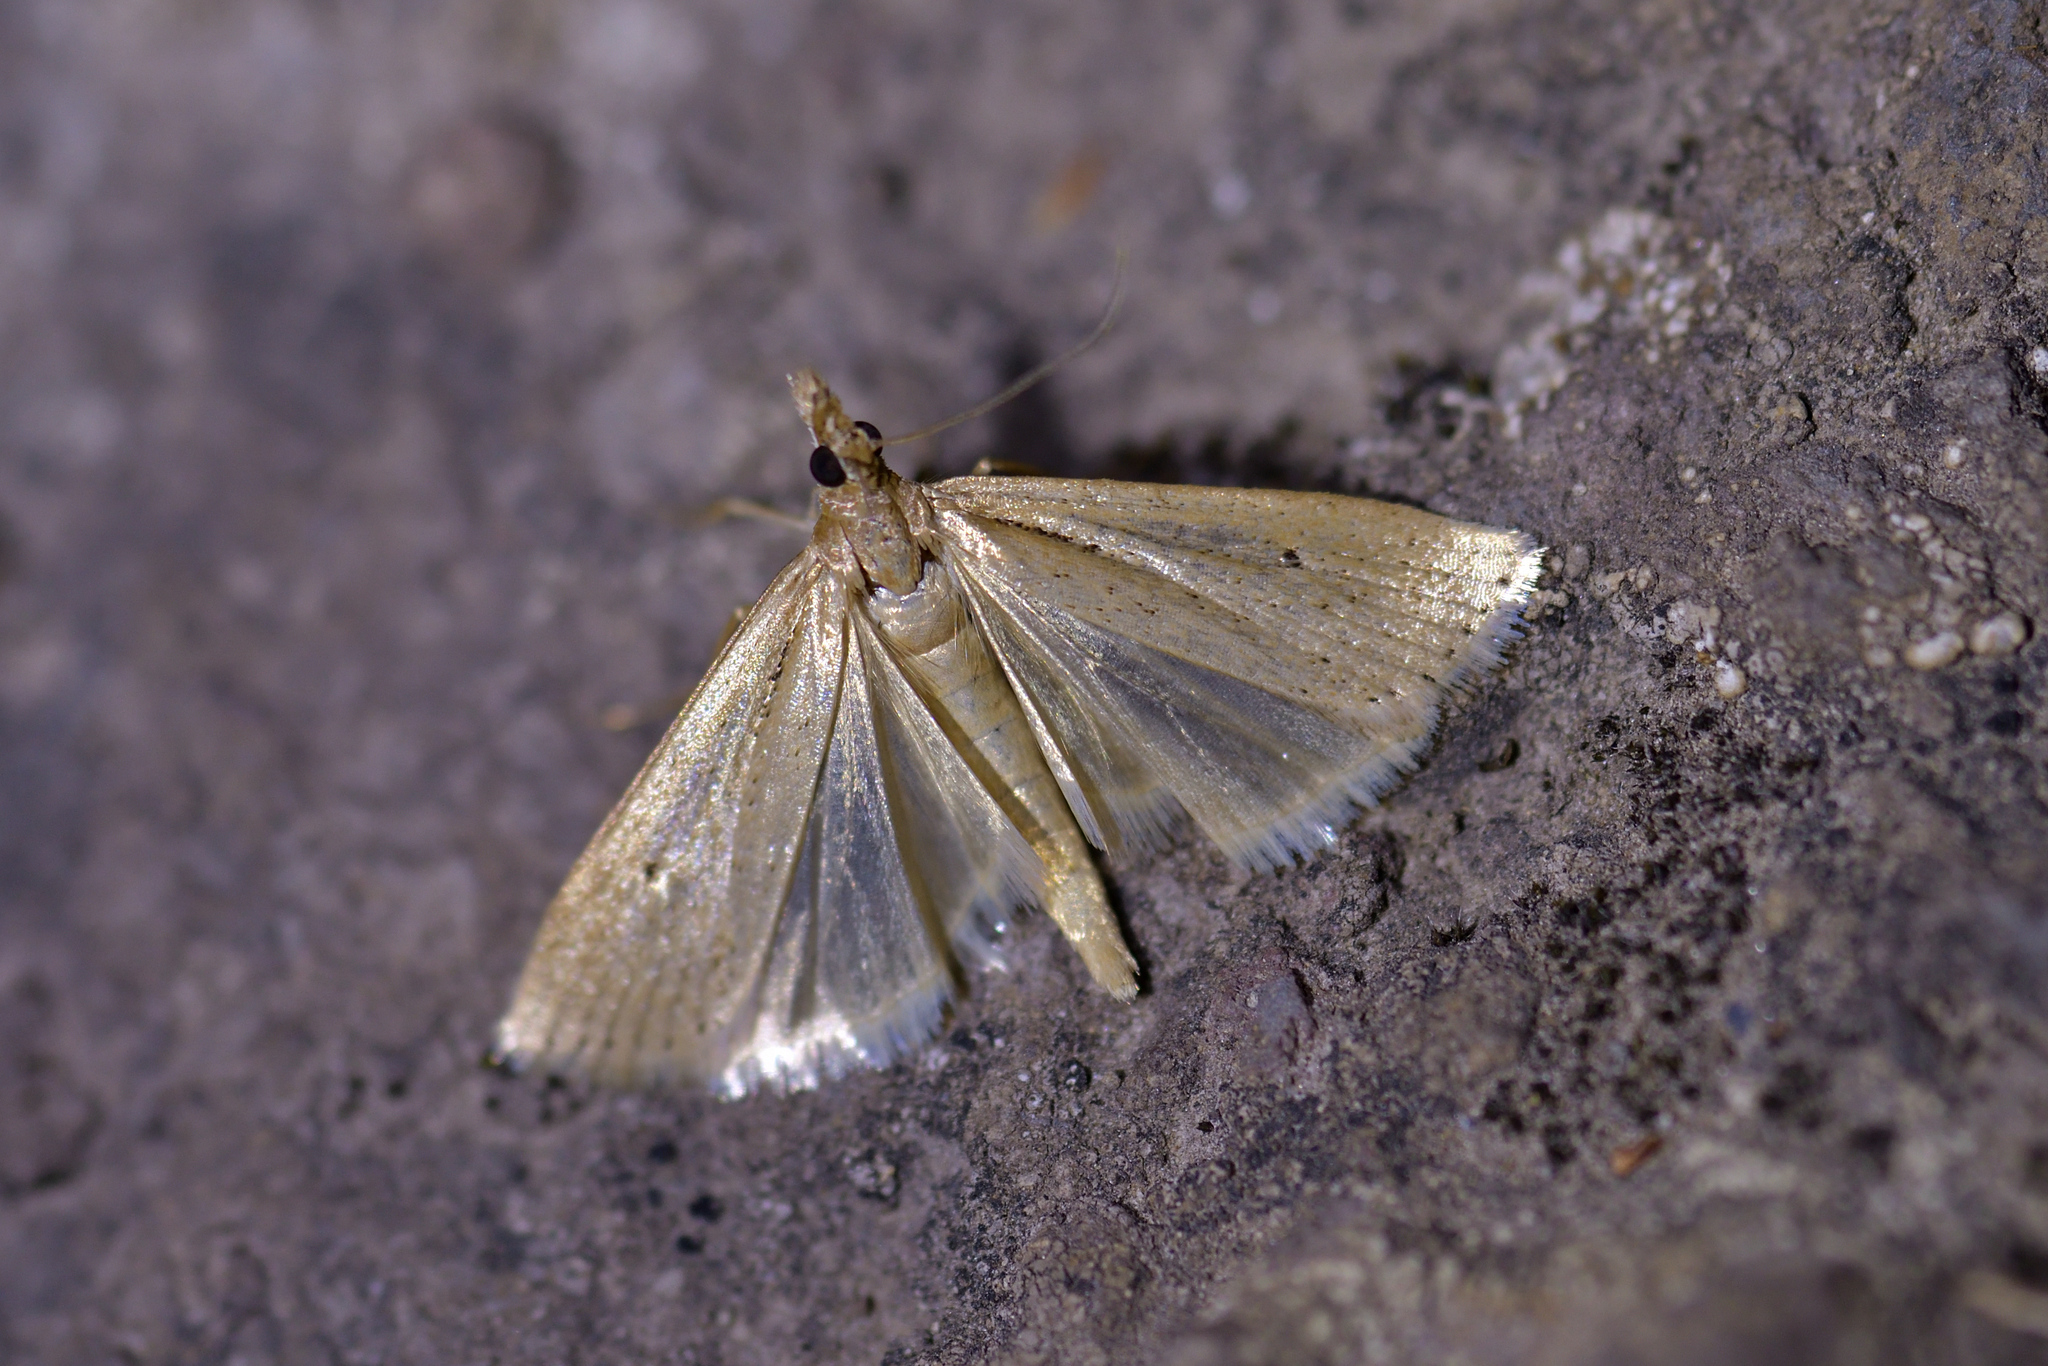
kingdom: Animalia
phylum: Arthropoda
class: Insecta
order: Lepidoptera
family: Crambidae
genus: Eudonia
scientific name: Eudonia sabulosella
